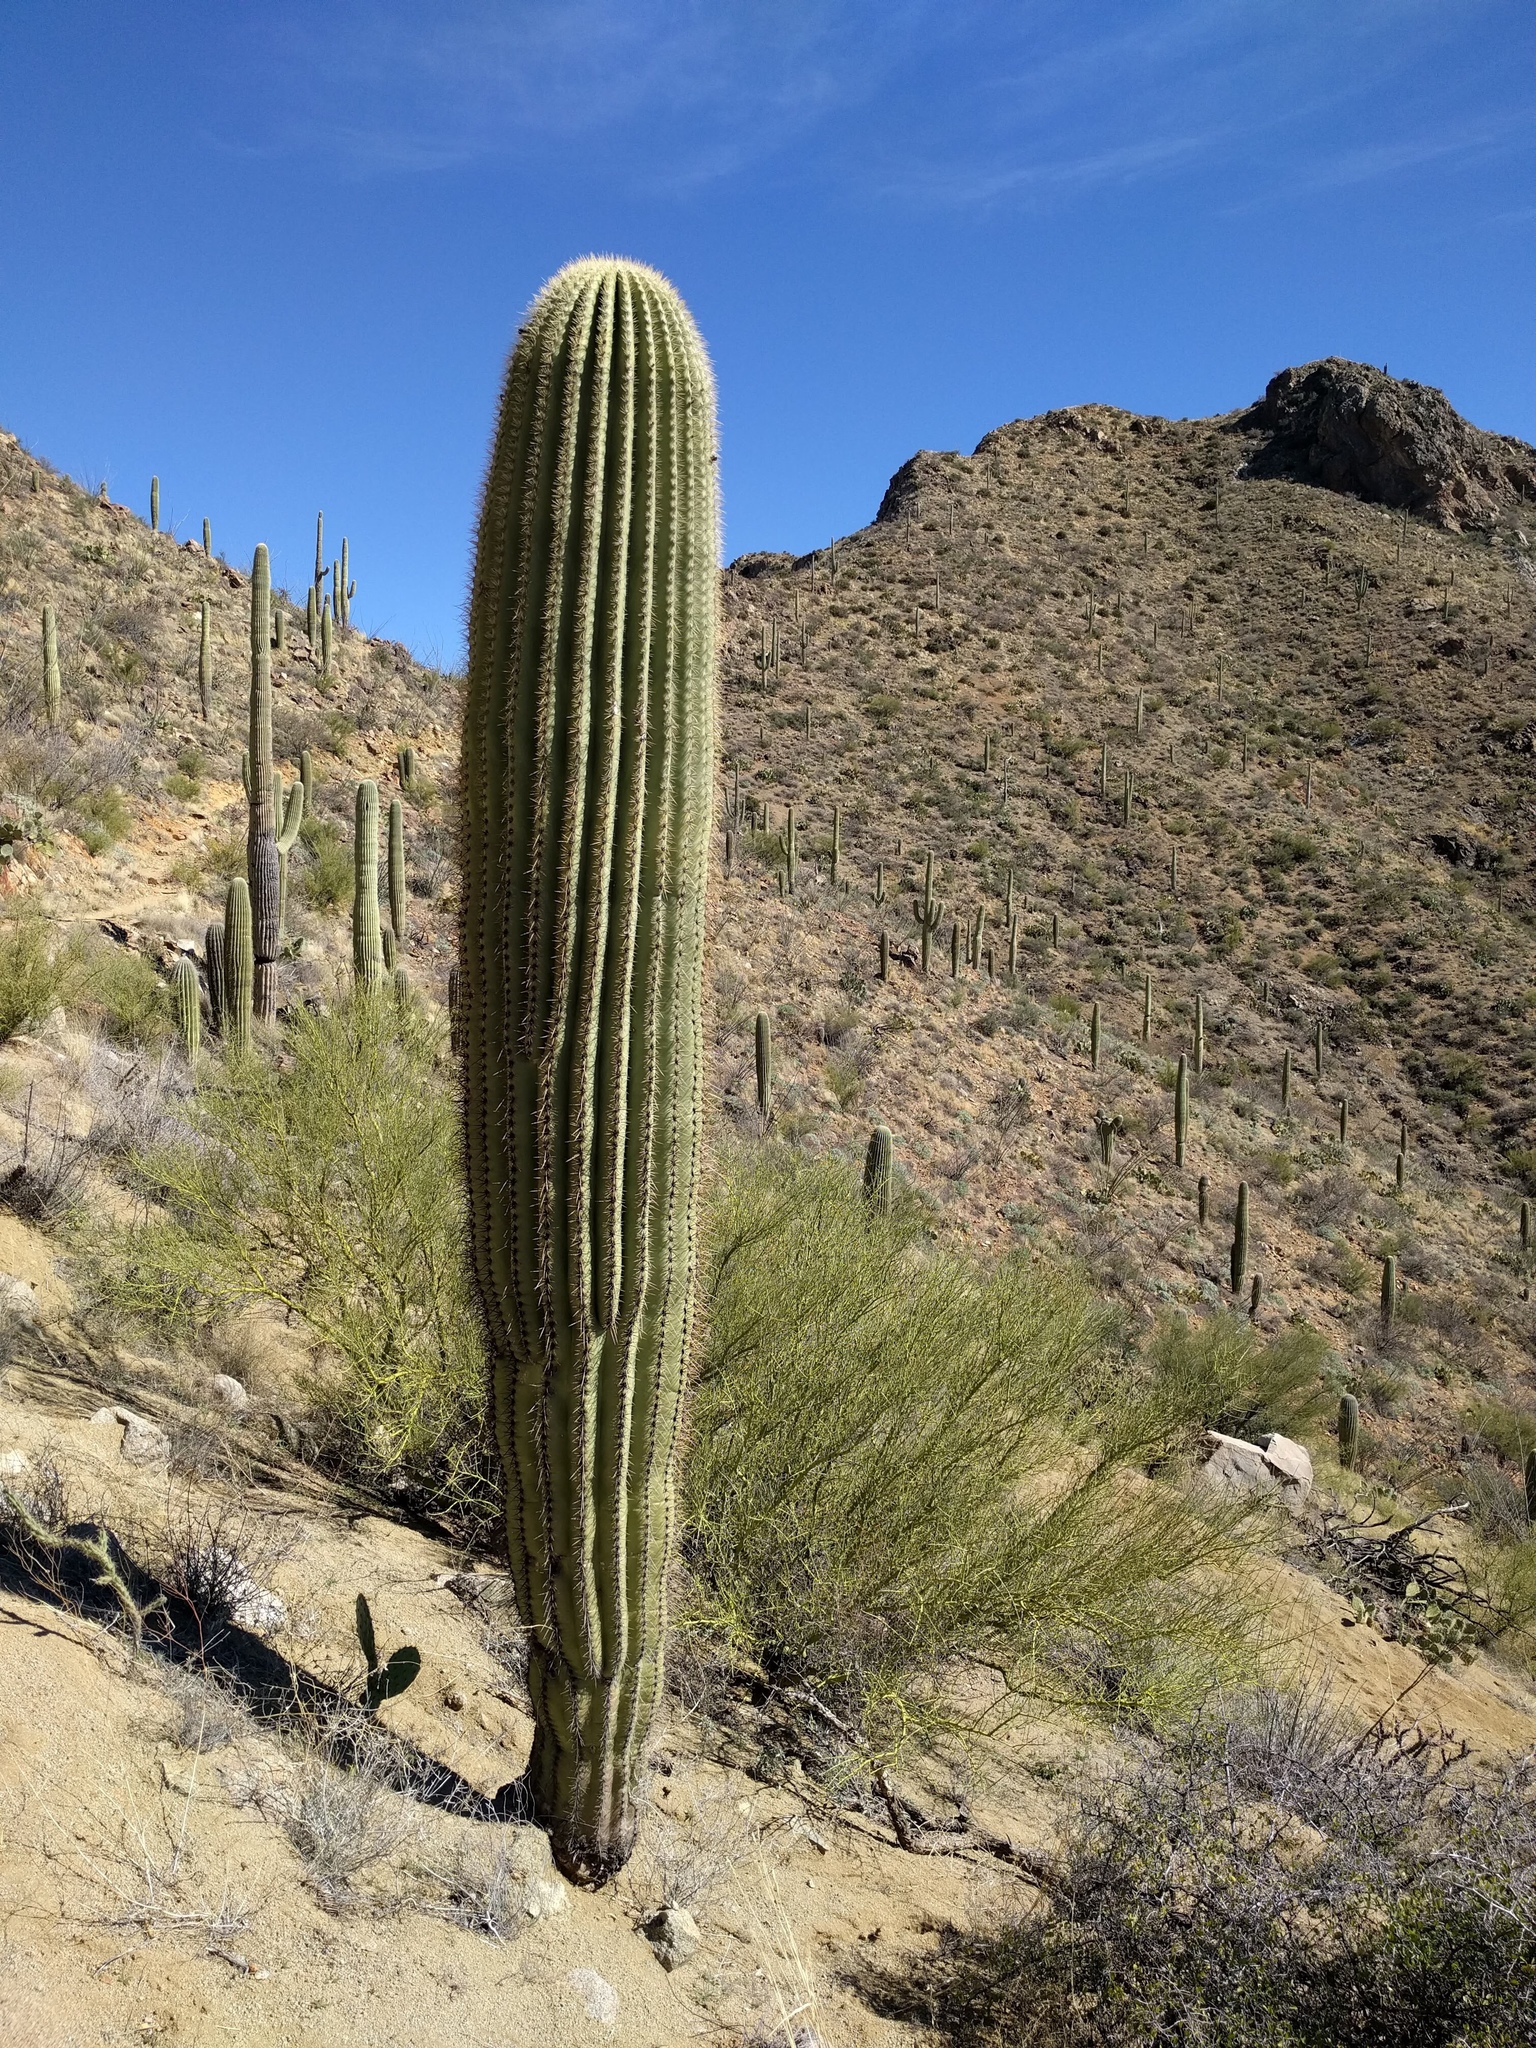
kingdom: Plantae
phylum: Tracheophyta
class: Magnoliopsida
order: Caryophyllales
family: Cactaceae
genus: Carnegiea
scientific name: Carnegiea gigantea
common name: Saguaro
